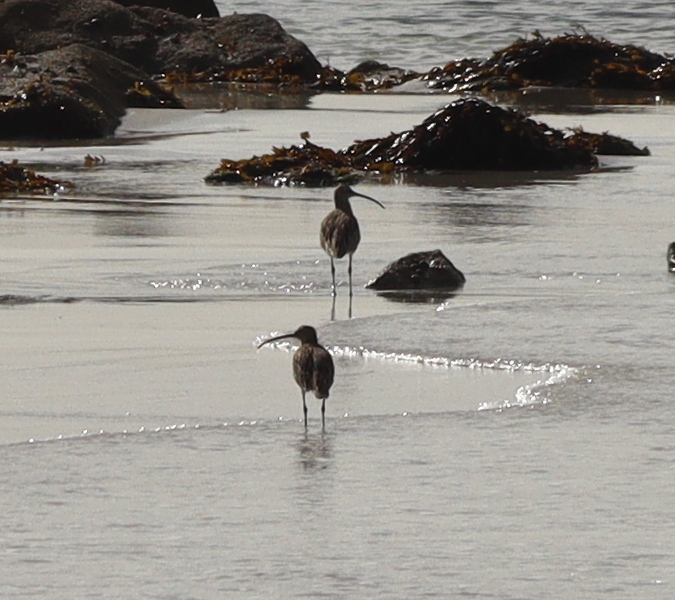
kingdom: Animalia
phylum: Chordata
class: Aves
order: Charadriiformes
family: Scolopacidae
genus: Numenius
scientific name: Numenius arquata
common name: Eurasian curlew
